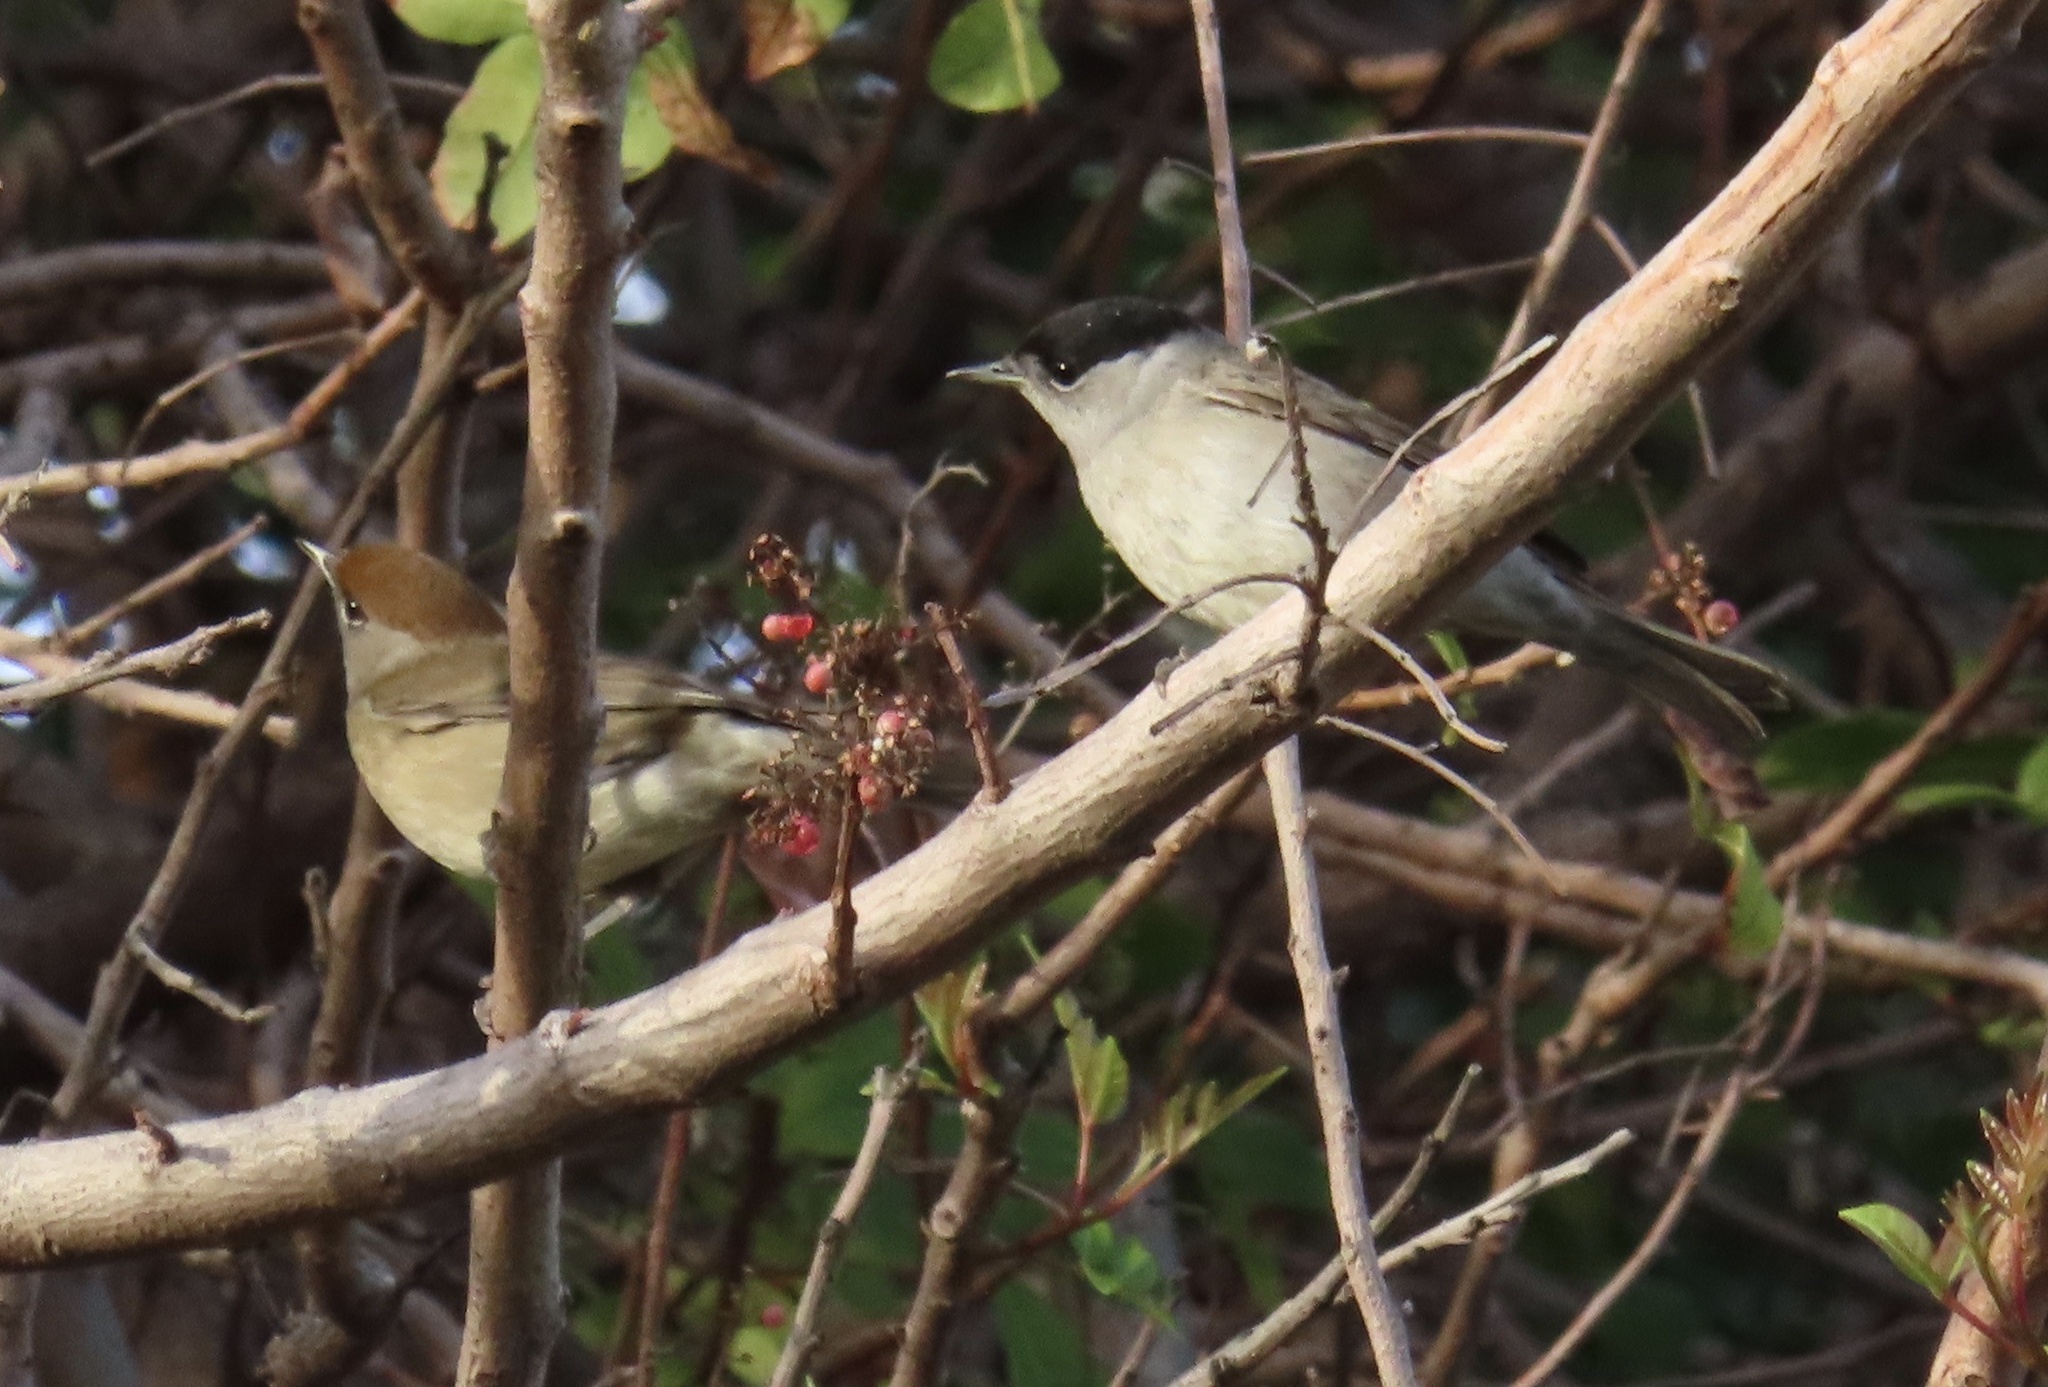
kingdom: Animalia
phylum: Chordata
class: Aves
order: Passeriformes
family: Sylviidae
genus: Sylvia
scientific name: Sylvia atricapilla
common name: Eurasian blackcap
